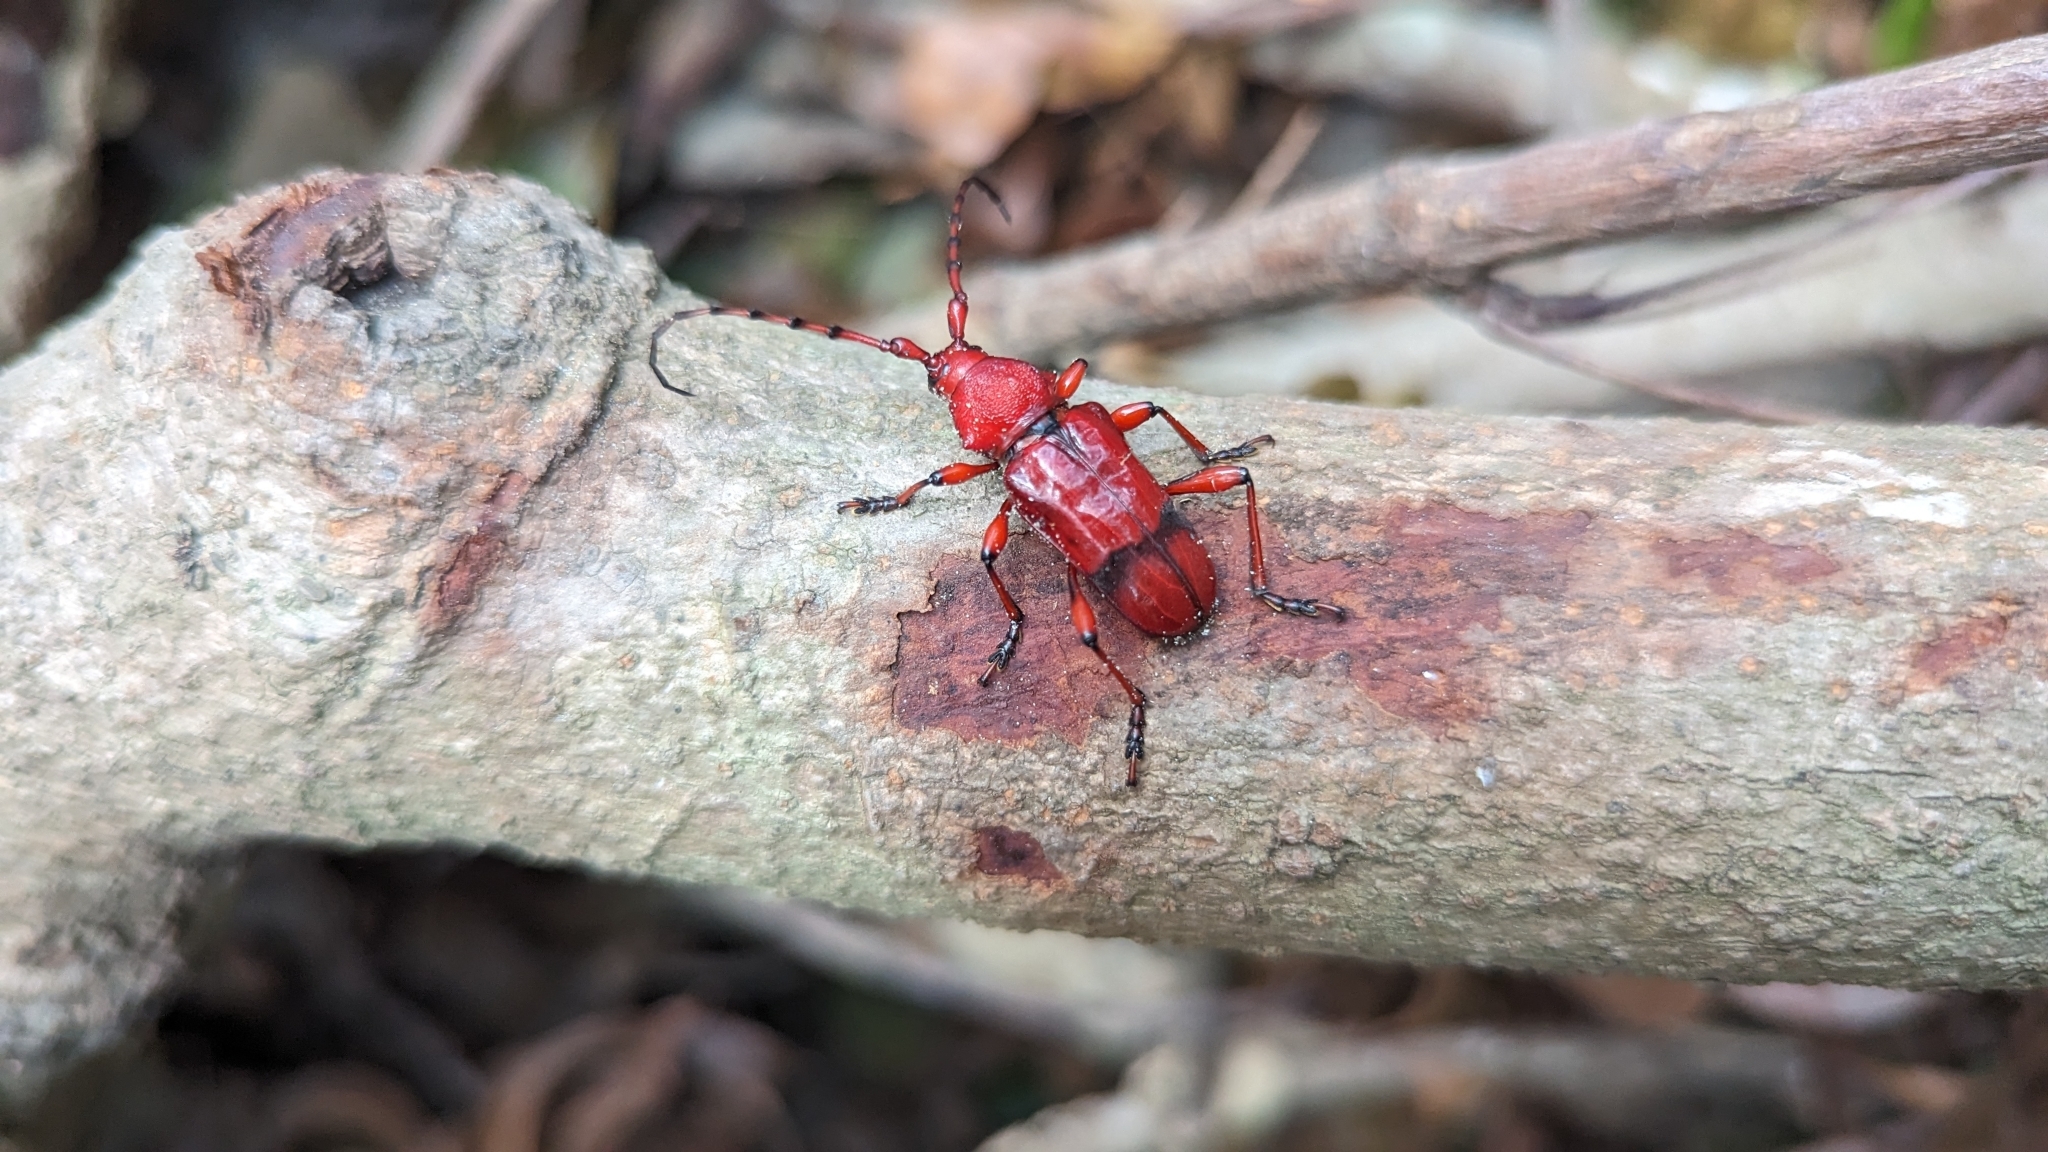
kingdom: Animalia
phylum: Arthropoda
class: Insecta
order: Coleoptera
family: Cerambycidae
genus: Dicelosternus
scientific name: Dicelosternus corallinus
